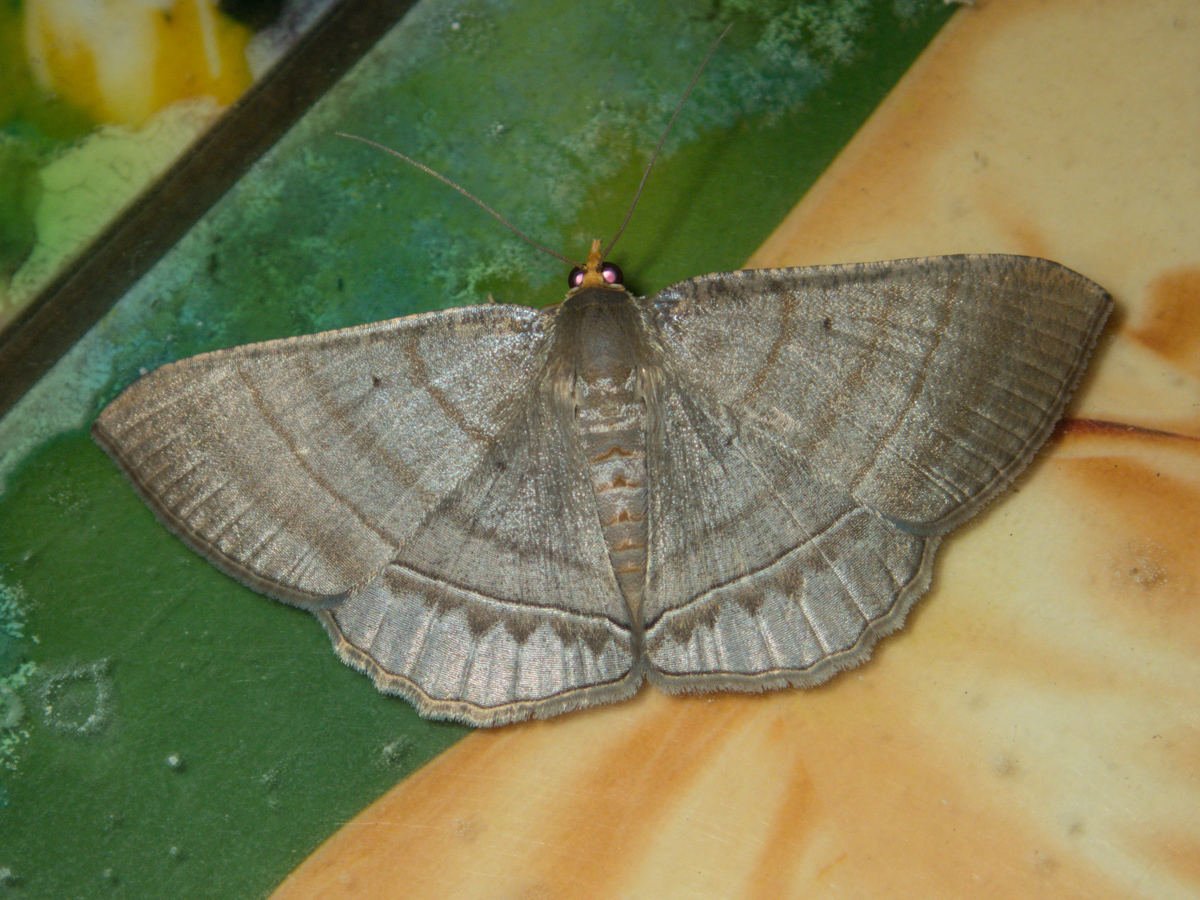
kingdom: Animalia
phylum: Arthropoda
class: Insecta
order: Lepidoptera
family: Geometridae
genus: Bulonga
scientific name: Bulonga schistacearia
